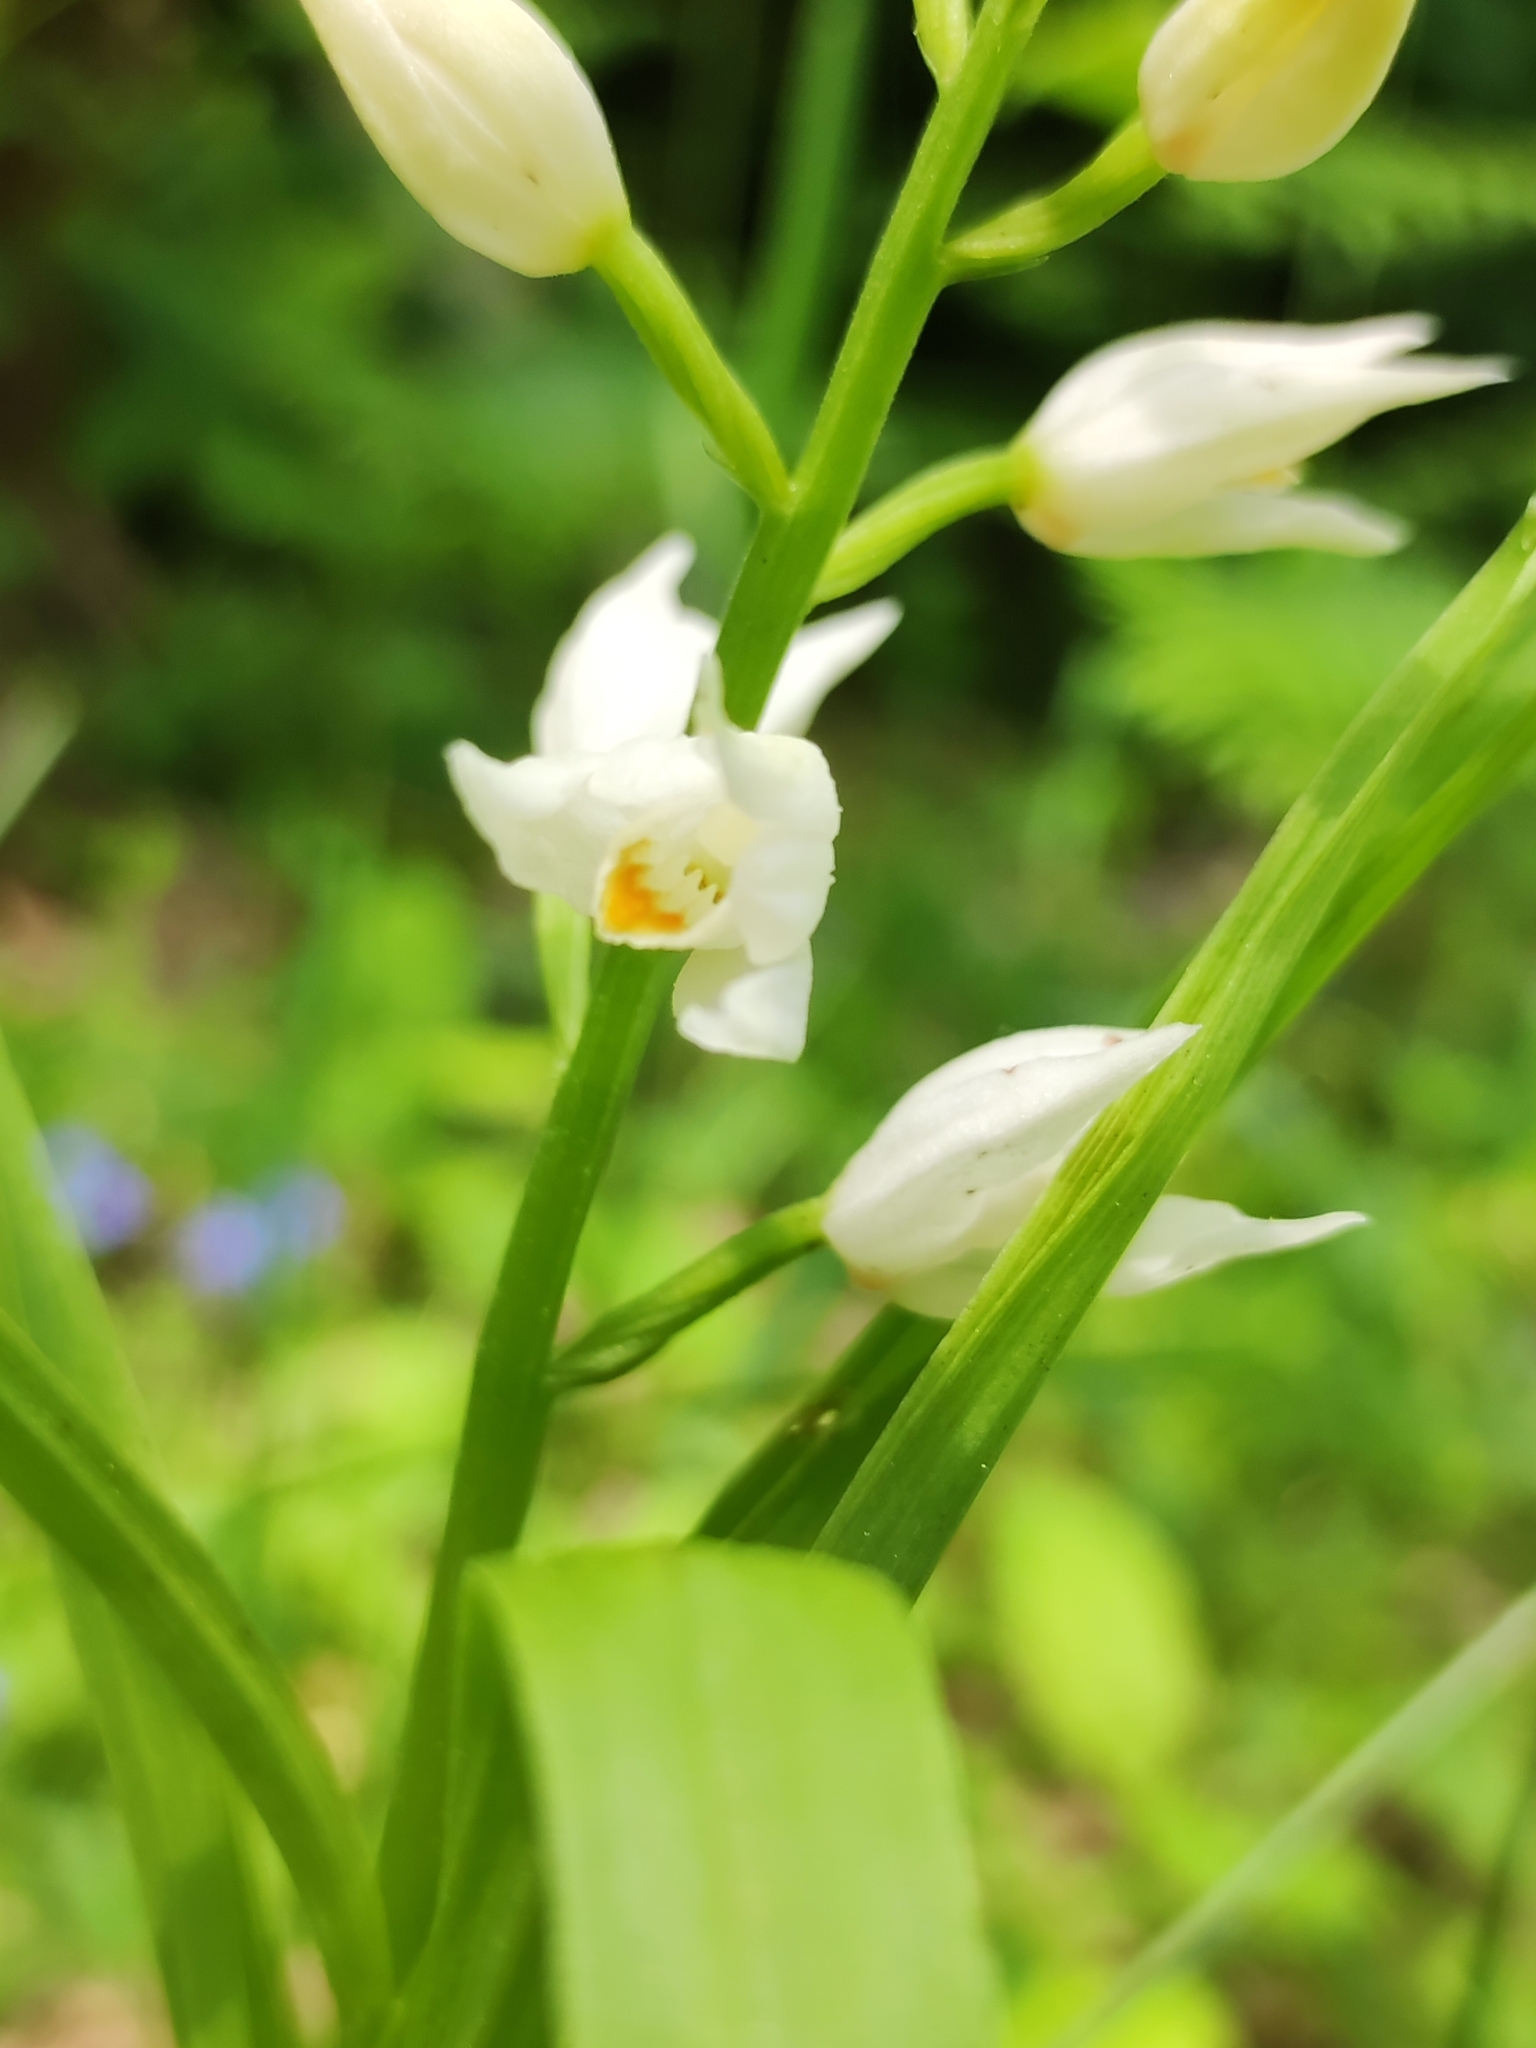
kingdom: Plantae
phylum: Tracheophyta
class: Liliopsida
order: Asparagales
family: Orchidaceae
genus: Cephalanthera
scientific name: Cephalanthera longifolia
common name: Narrow-leaved helleborine
